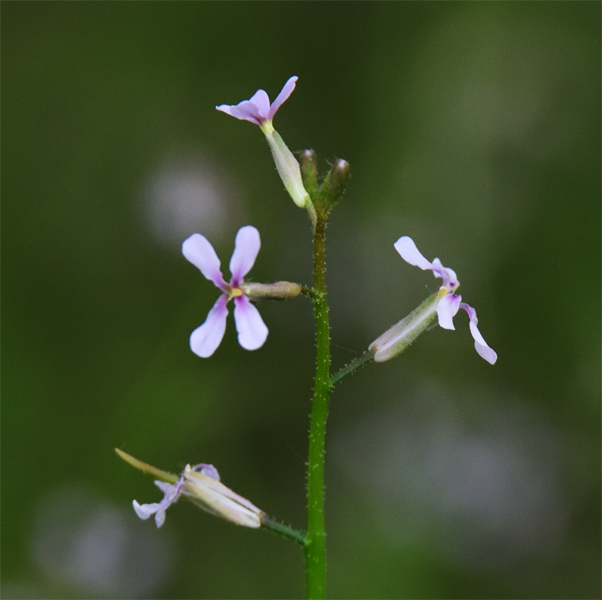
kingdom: Plantae
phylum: Tracheophyta
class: Magnoliopsida
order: Brassicales
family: Brassicaceae
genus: Chorispora
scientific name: Chorispora tenella
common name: Crossflower
